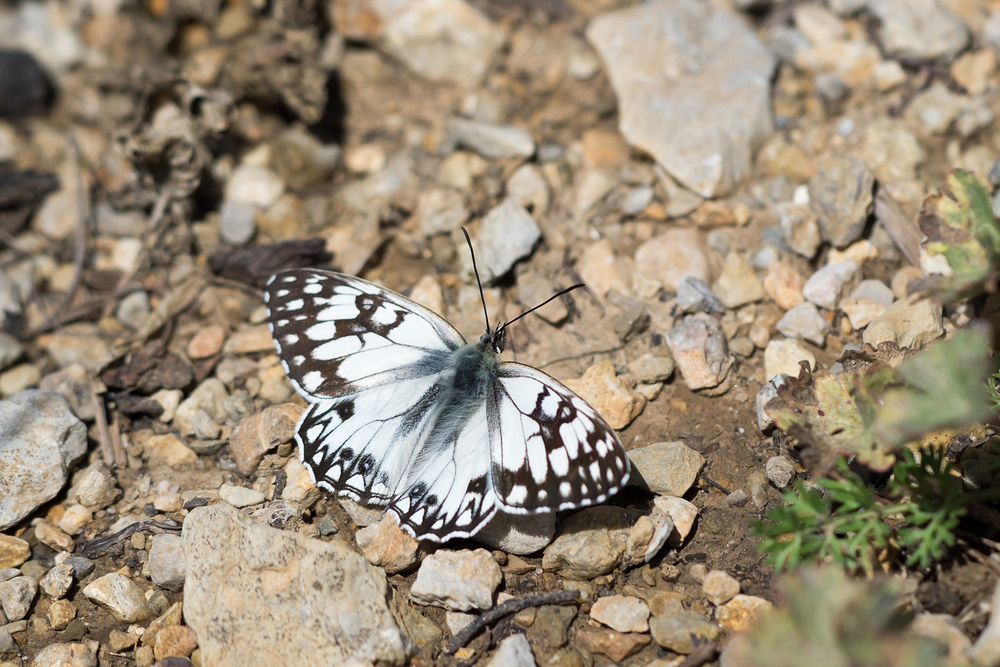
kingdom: Animalia
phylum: Arthropoda
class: Insecta
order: Lepidoptera
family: Nymphalidae
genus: Melanargia
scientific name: Melanargia occitanica
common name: Western marbled white
